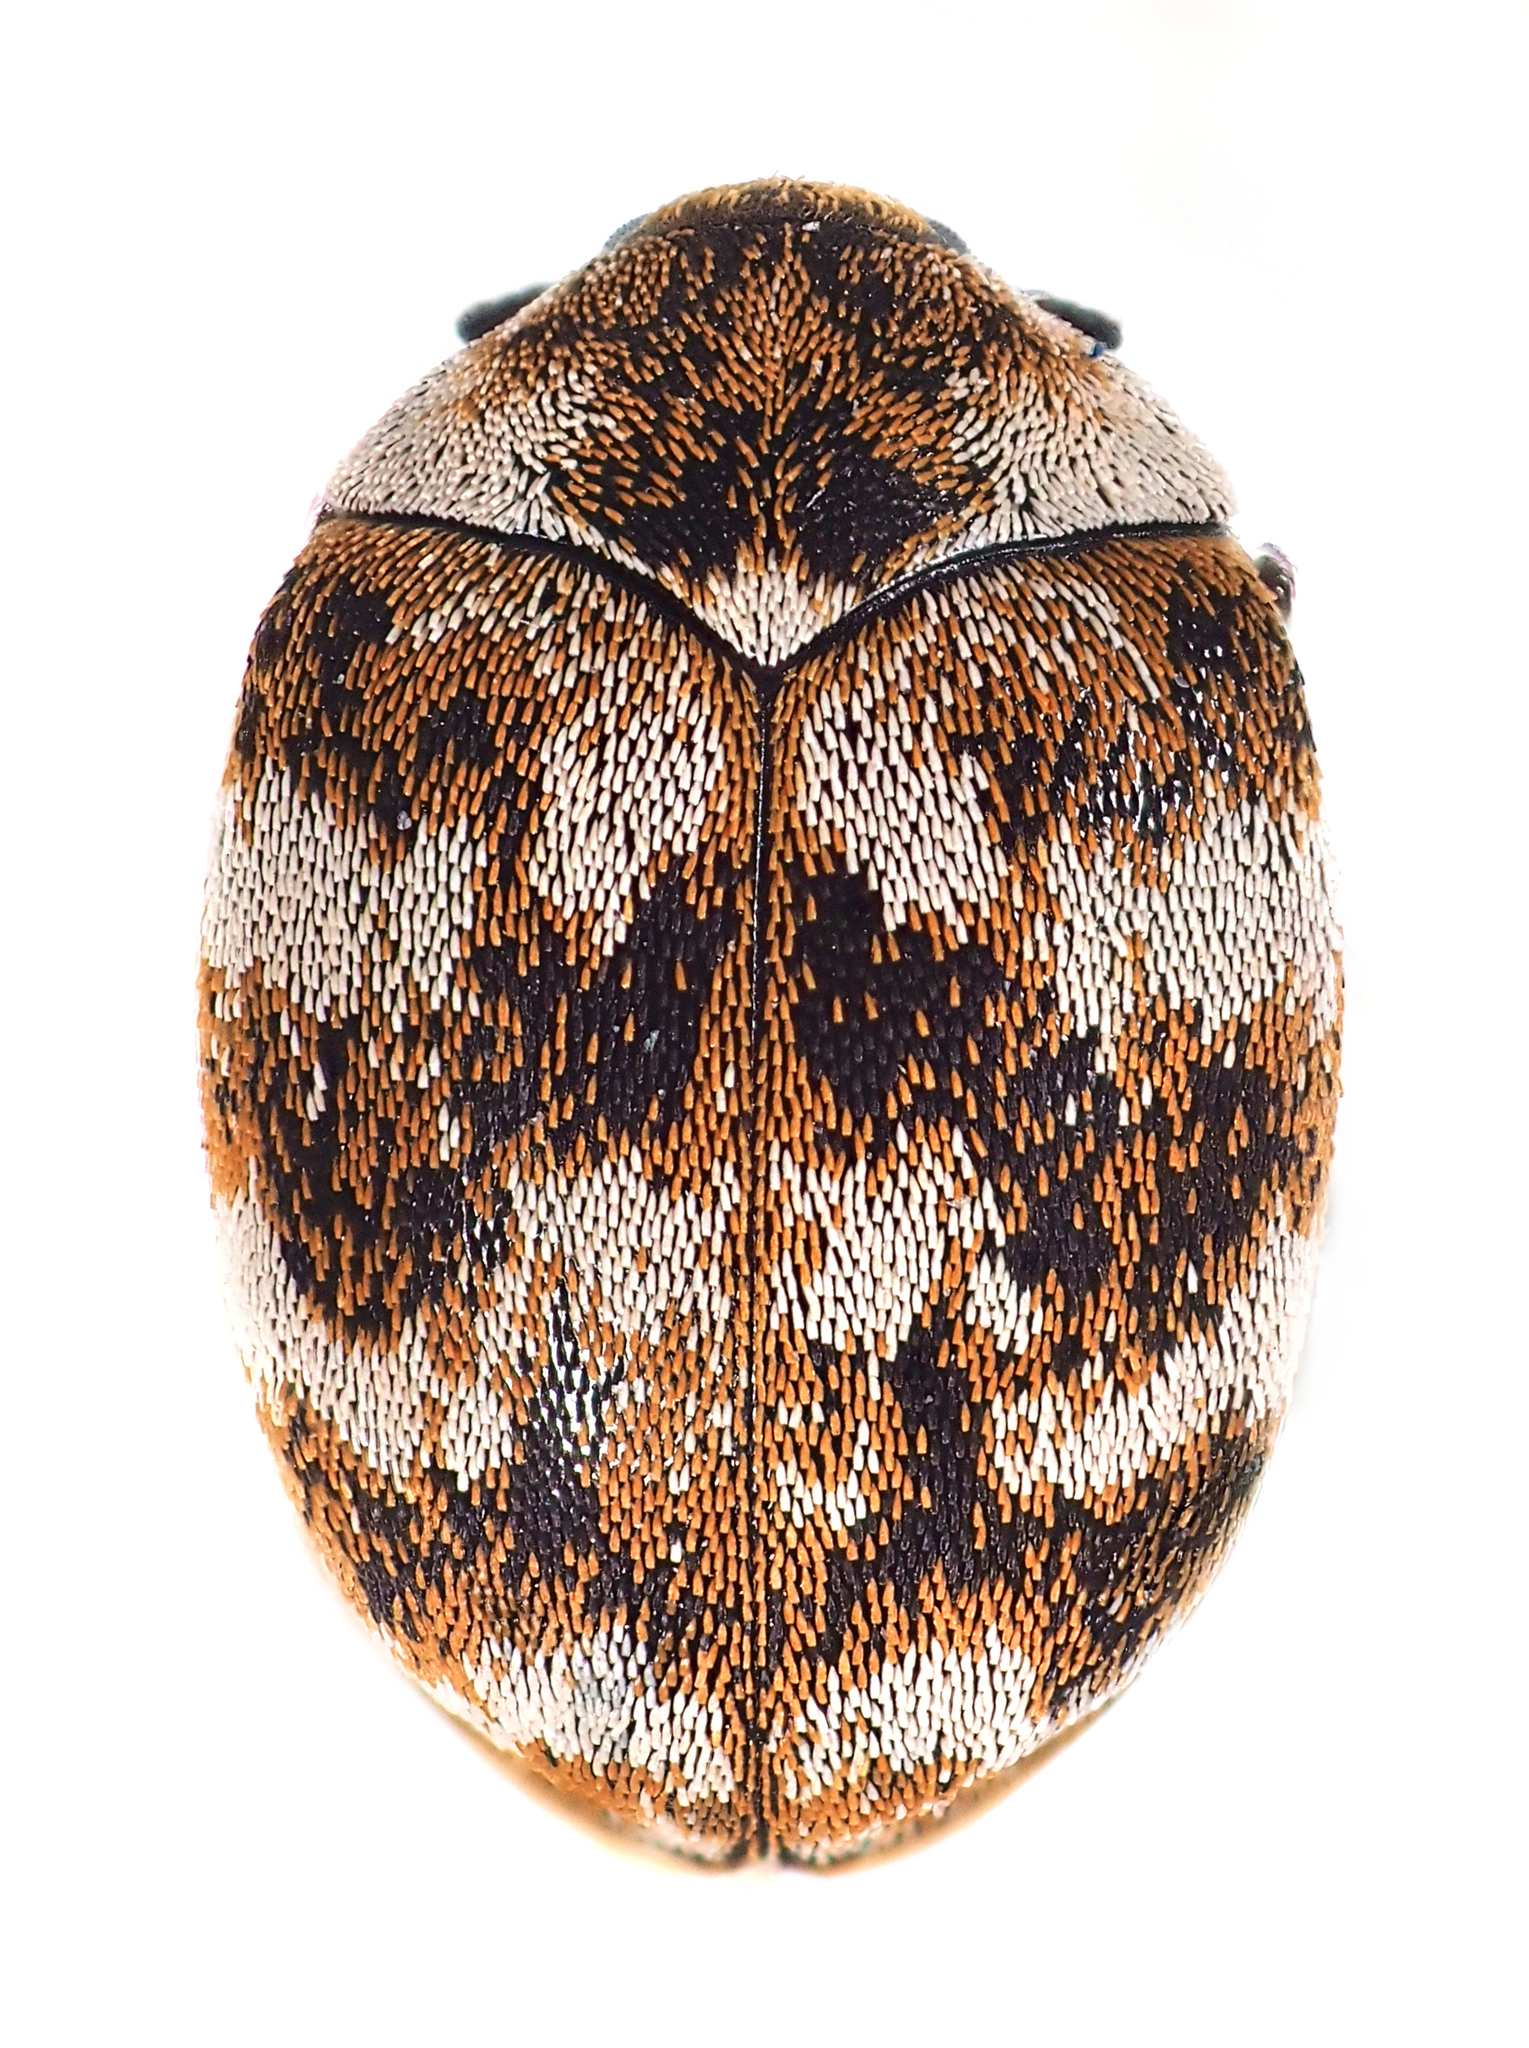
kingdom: Animalia
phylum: Arthropoda
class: Insecta
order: Coleoptera
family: Dermestidae
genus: Anthrenus
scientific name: Anthrenus verbasci
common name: Varied carpet beetle
